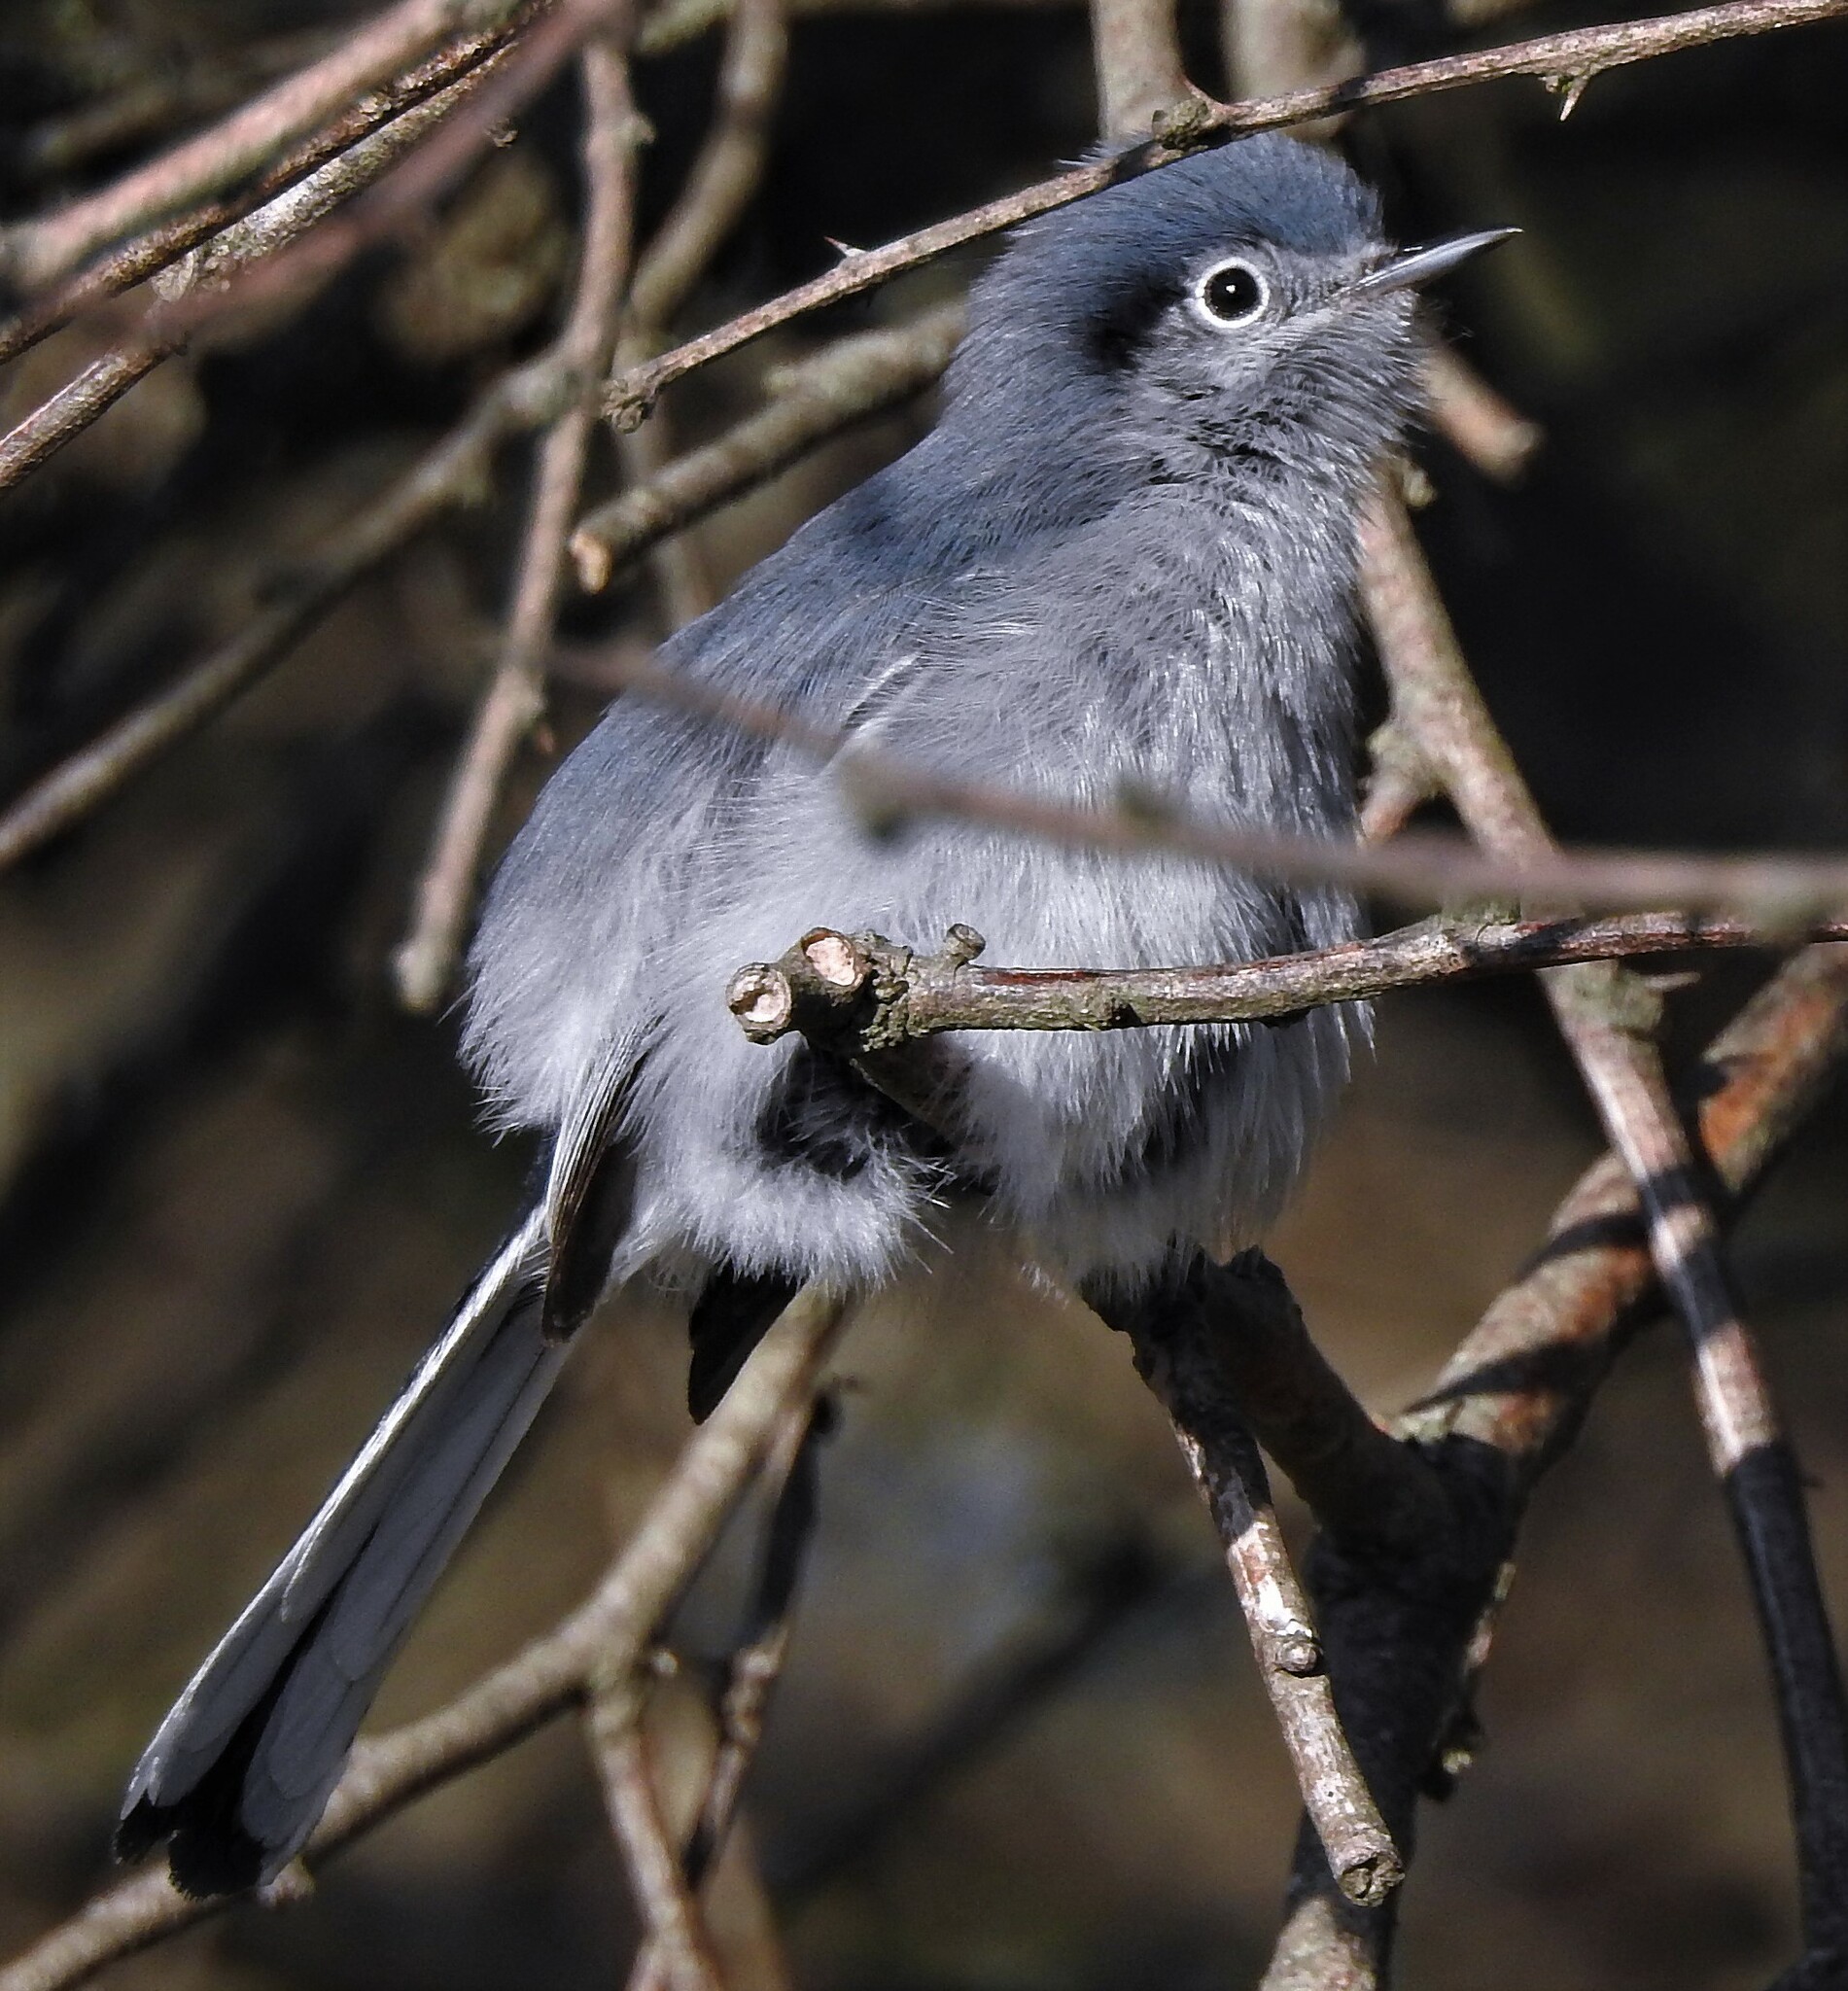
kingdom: Animalia
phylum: Chordata
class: Aves
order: Passeriformes
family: Polioptilidae
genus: Polioptila
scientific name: Polioptila dumicola
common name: Masked gnatcatcher
